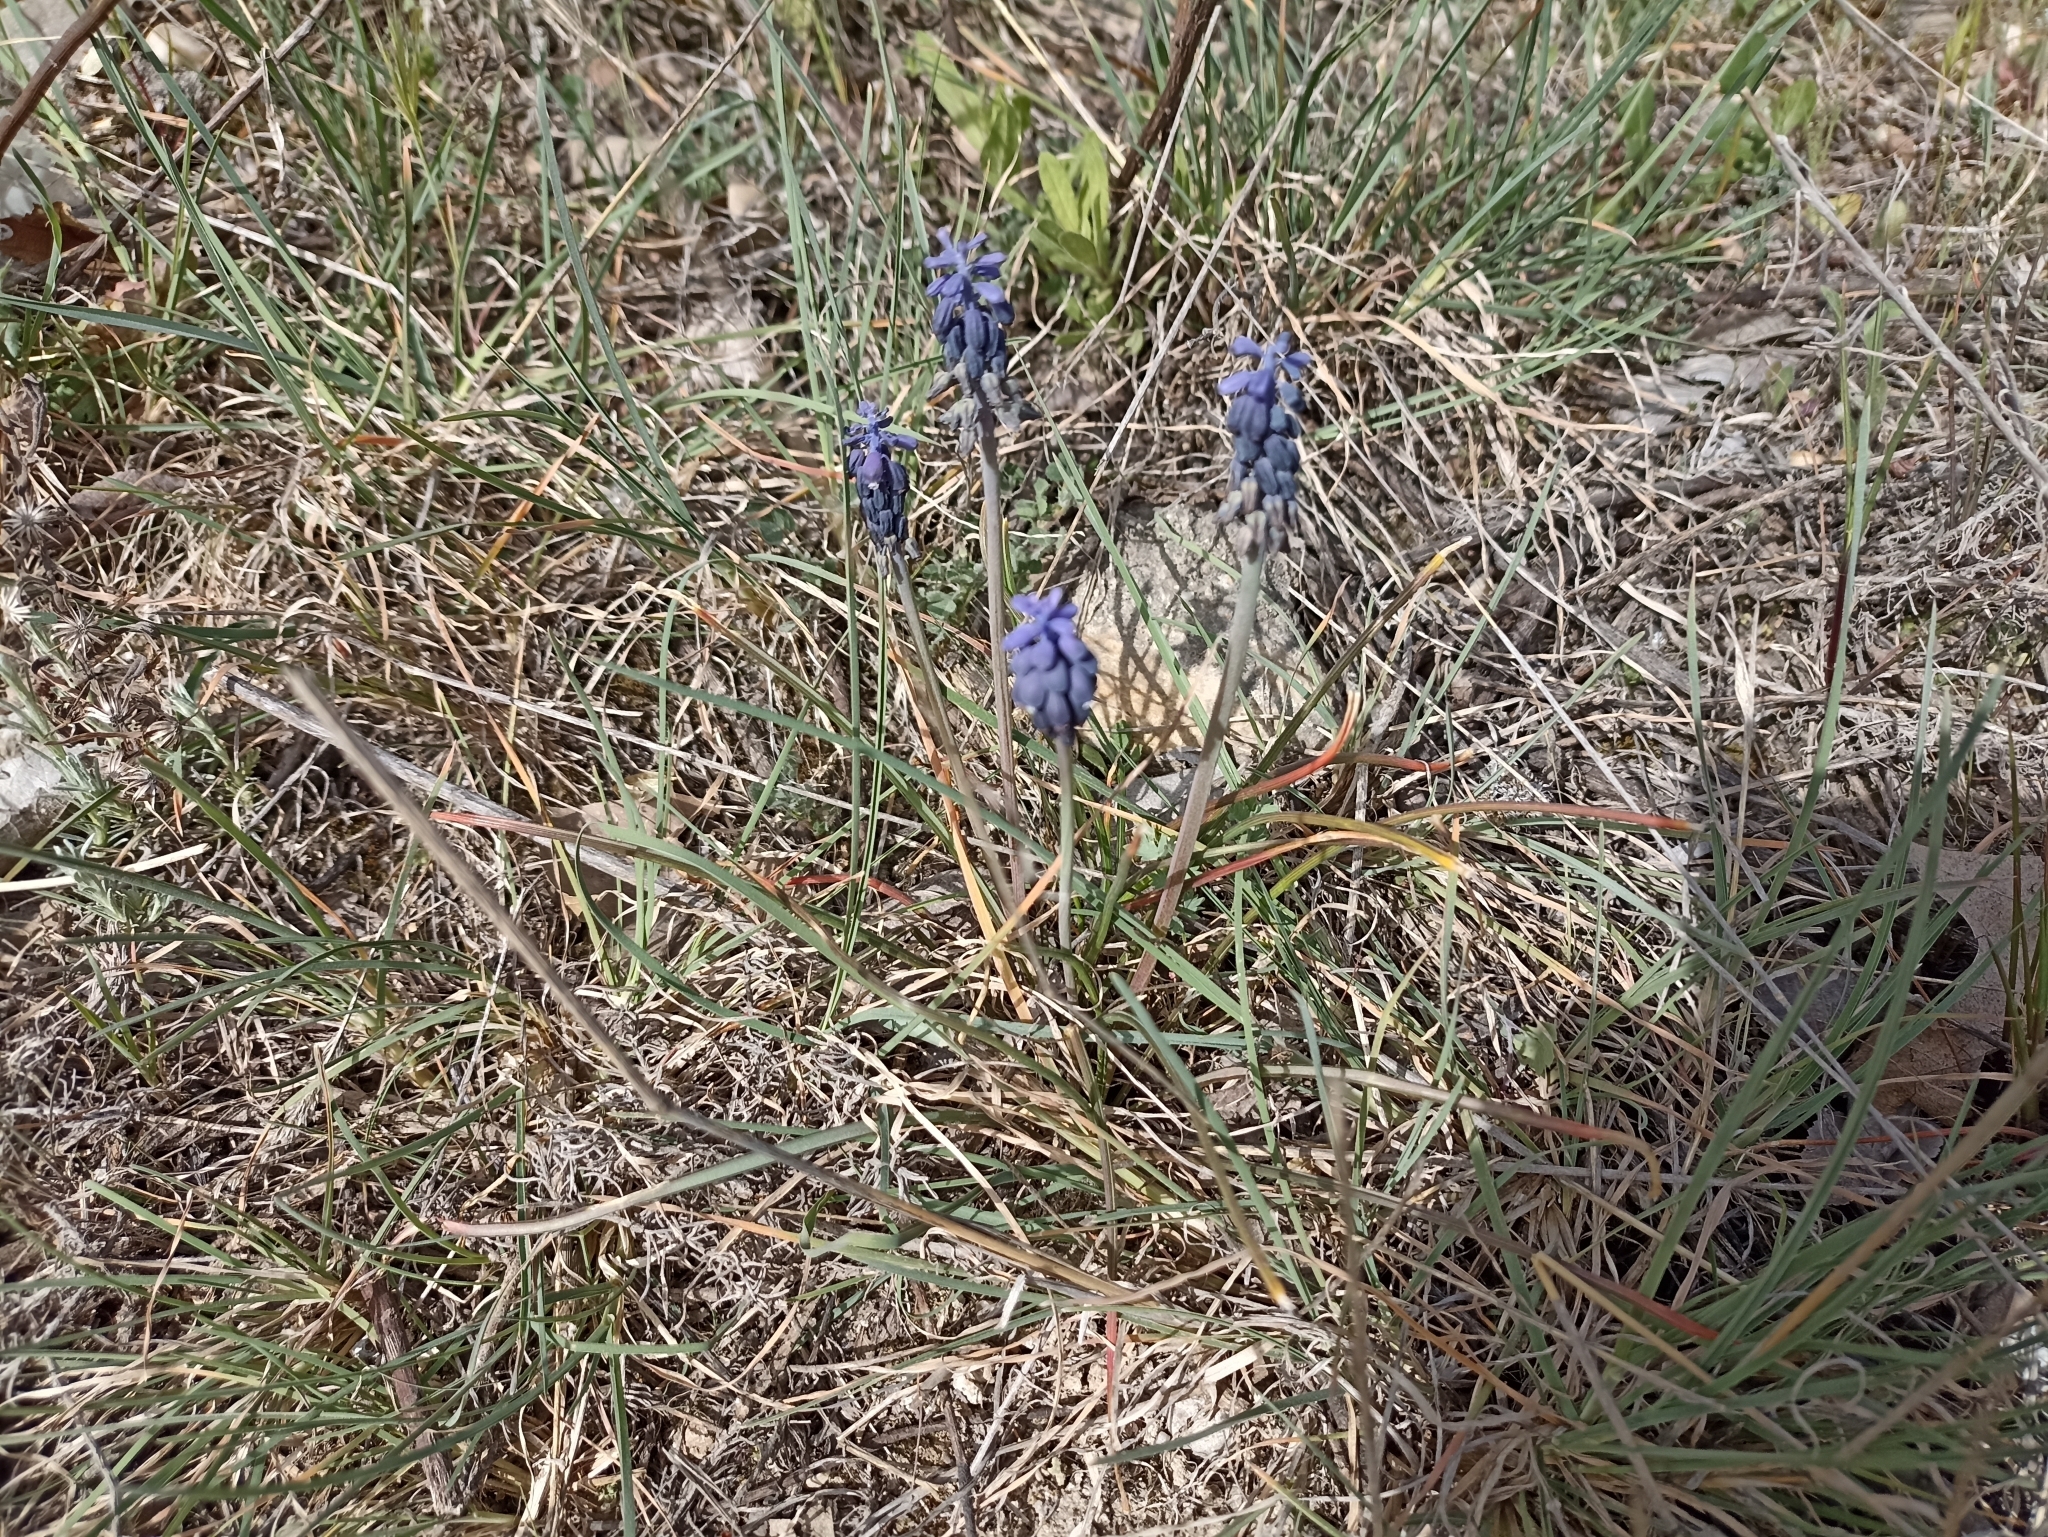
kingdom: Plantae
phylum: Tracheophyta
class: Liliopsida
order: Asparagales
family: Asparagaceae
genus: Muscari
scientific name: Muscari neglectum
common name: Grape-hyacinth
